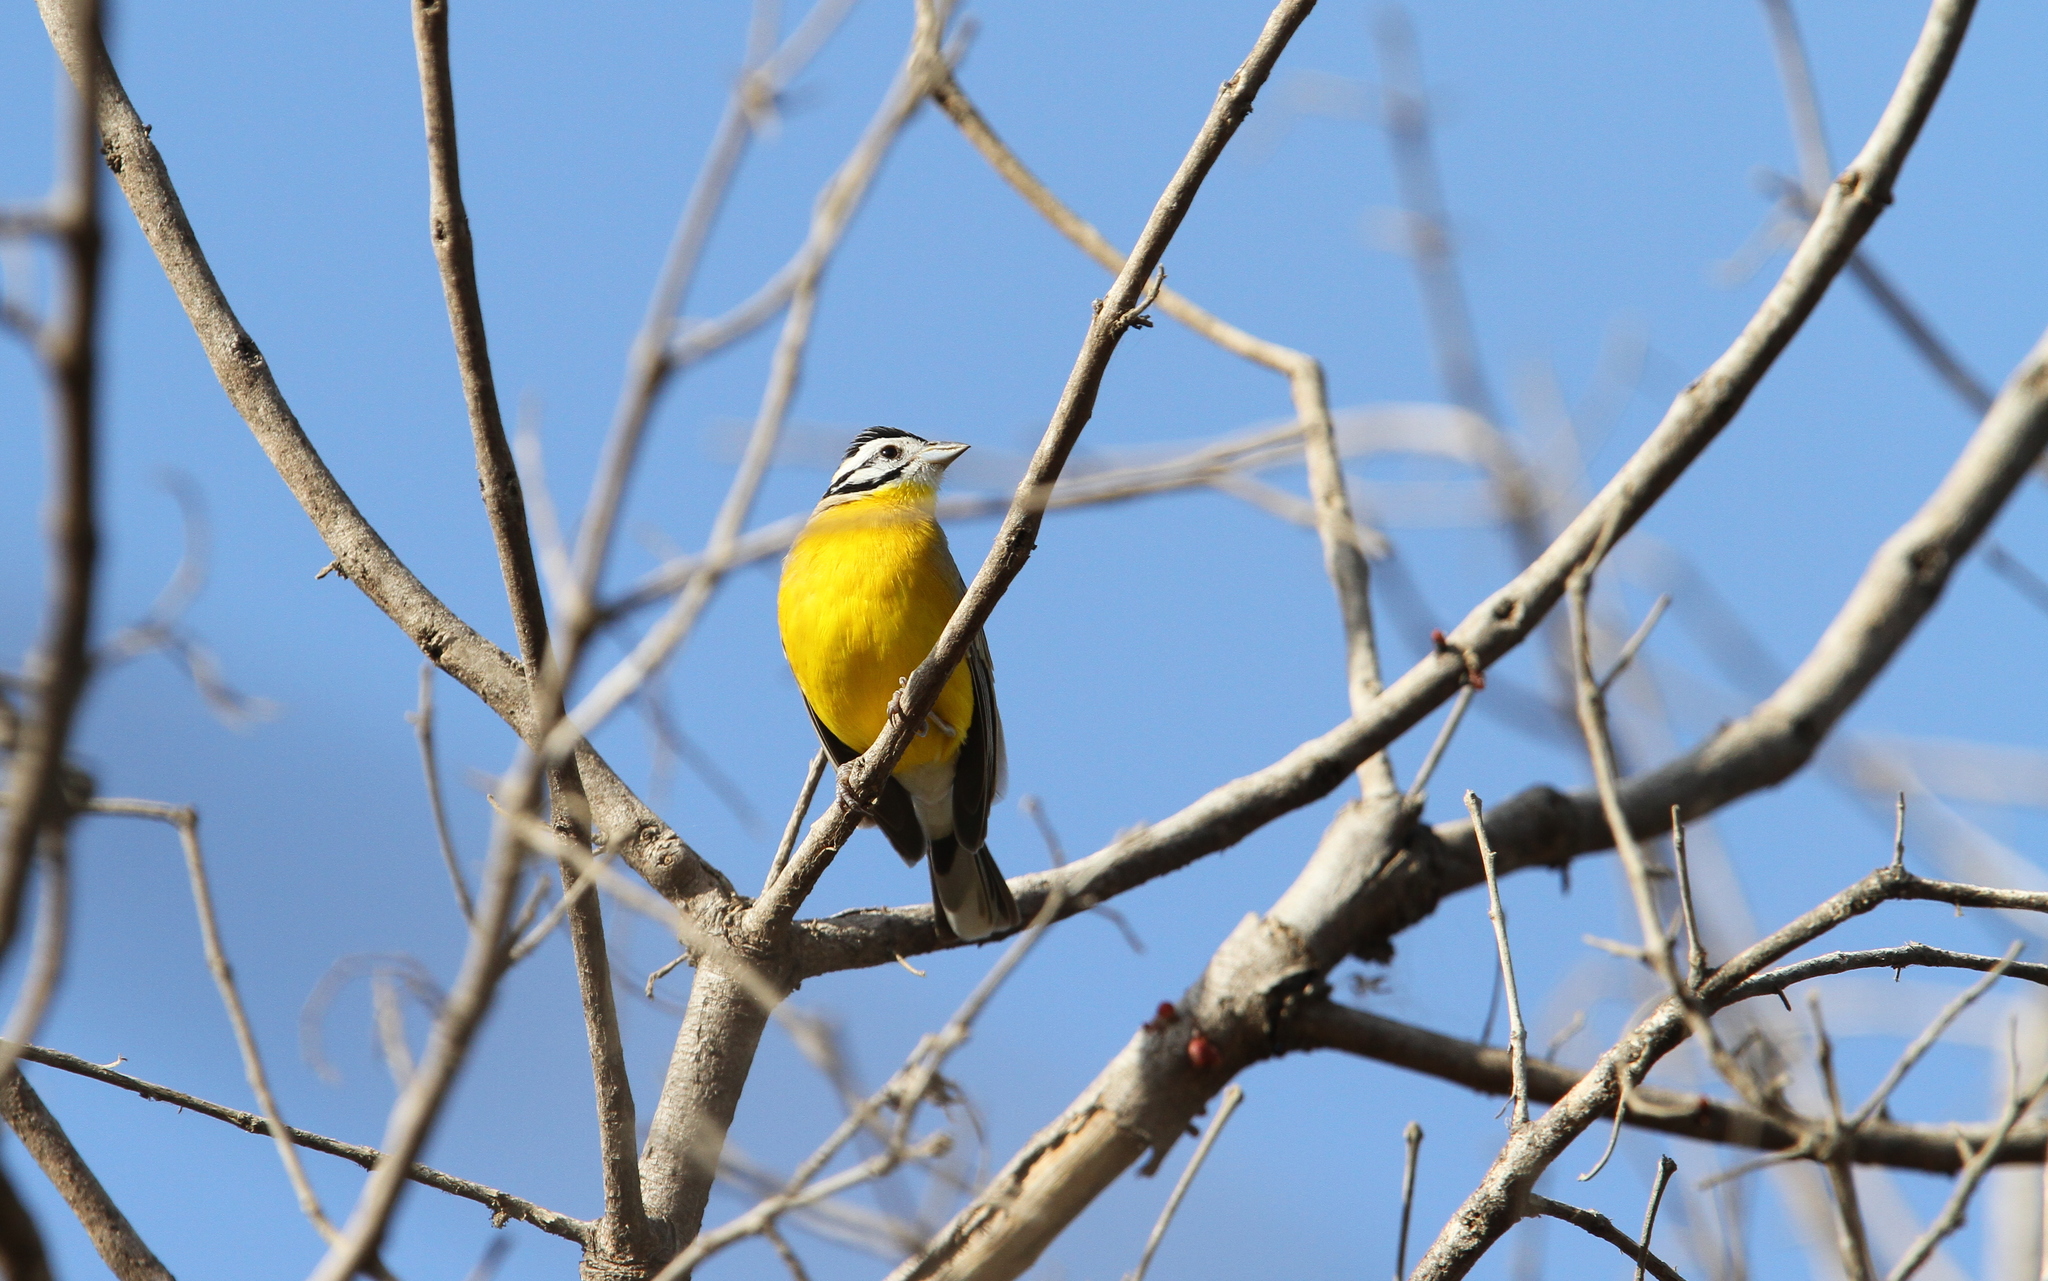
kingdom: Animalia
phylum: Chordata
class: Aves
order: Passeriformes
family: Emberizidae
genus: Emberiza
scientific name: Emberiza affinis
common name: Brown-rumped bunting
